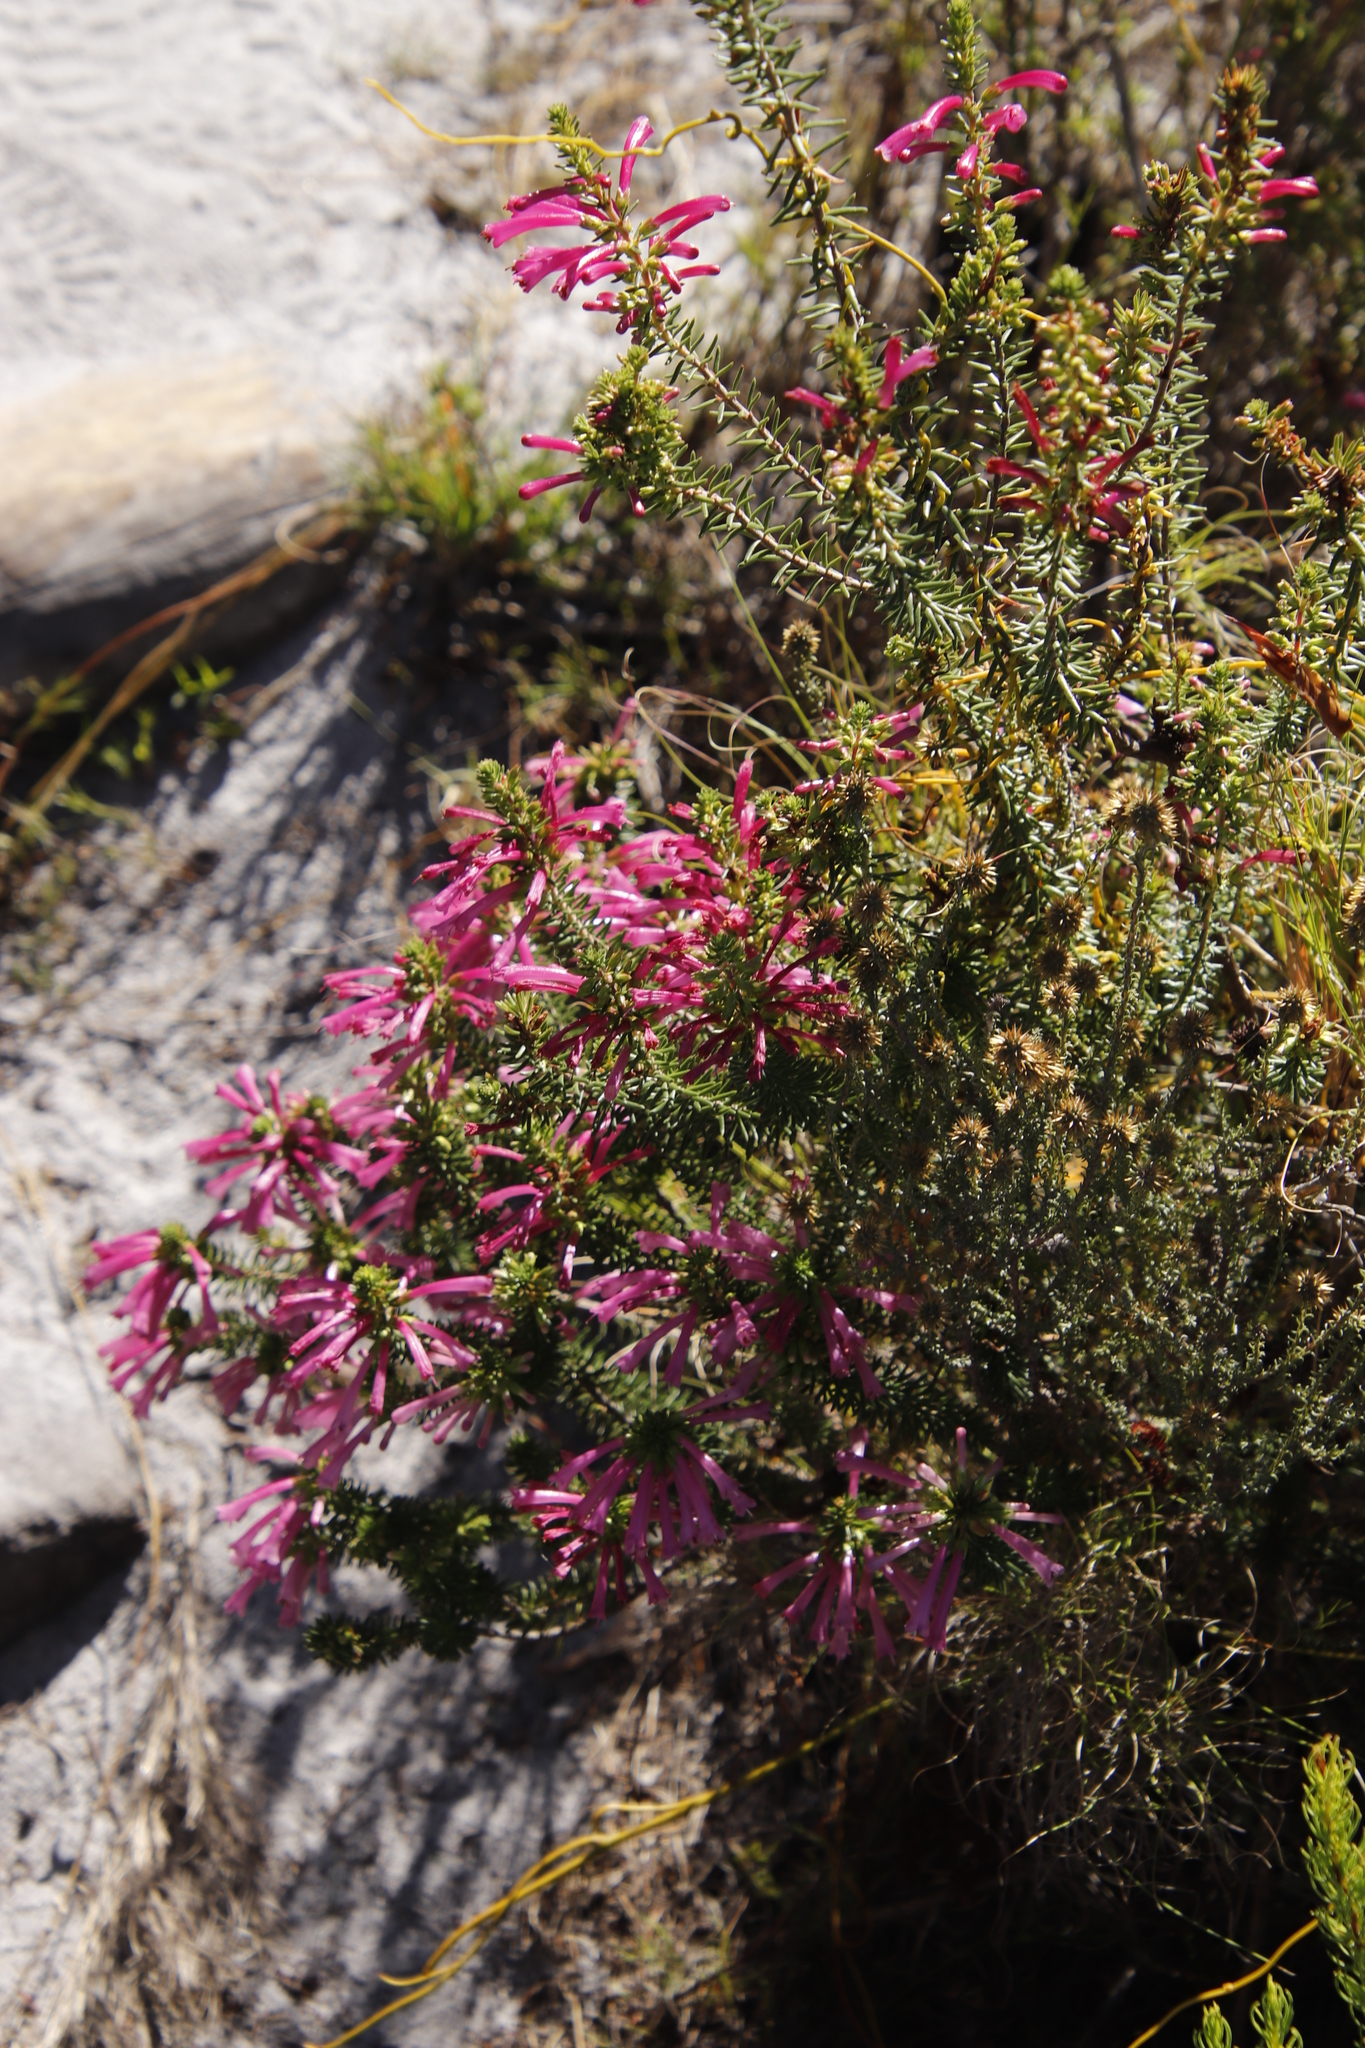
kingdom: Plantae
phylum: Tracheophyta
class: Magnoliopsida
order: Ericales
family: Ericaceae
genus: Erica
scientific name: Erica abietina
